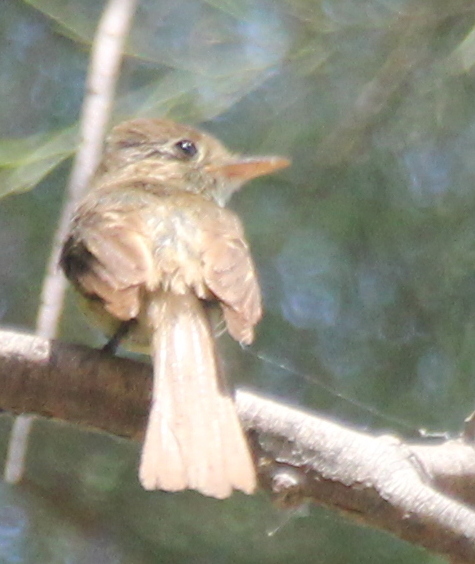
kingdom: Animalia
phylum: Chordata
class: Aves
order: Passeriformes
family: Tyrannidae
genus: Empidonax
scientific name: Empidonax difficilis
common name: Pacific-slope flycatcher
